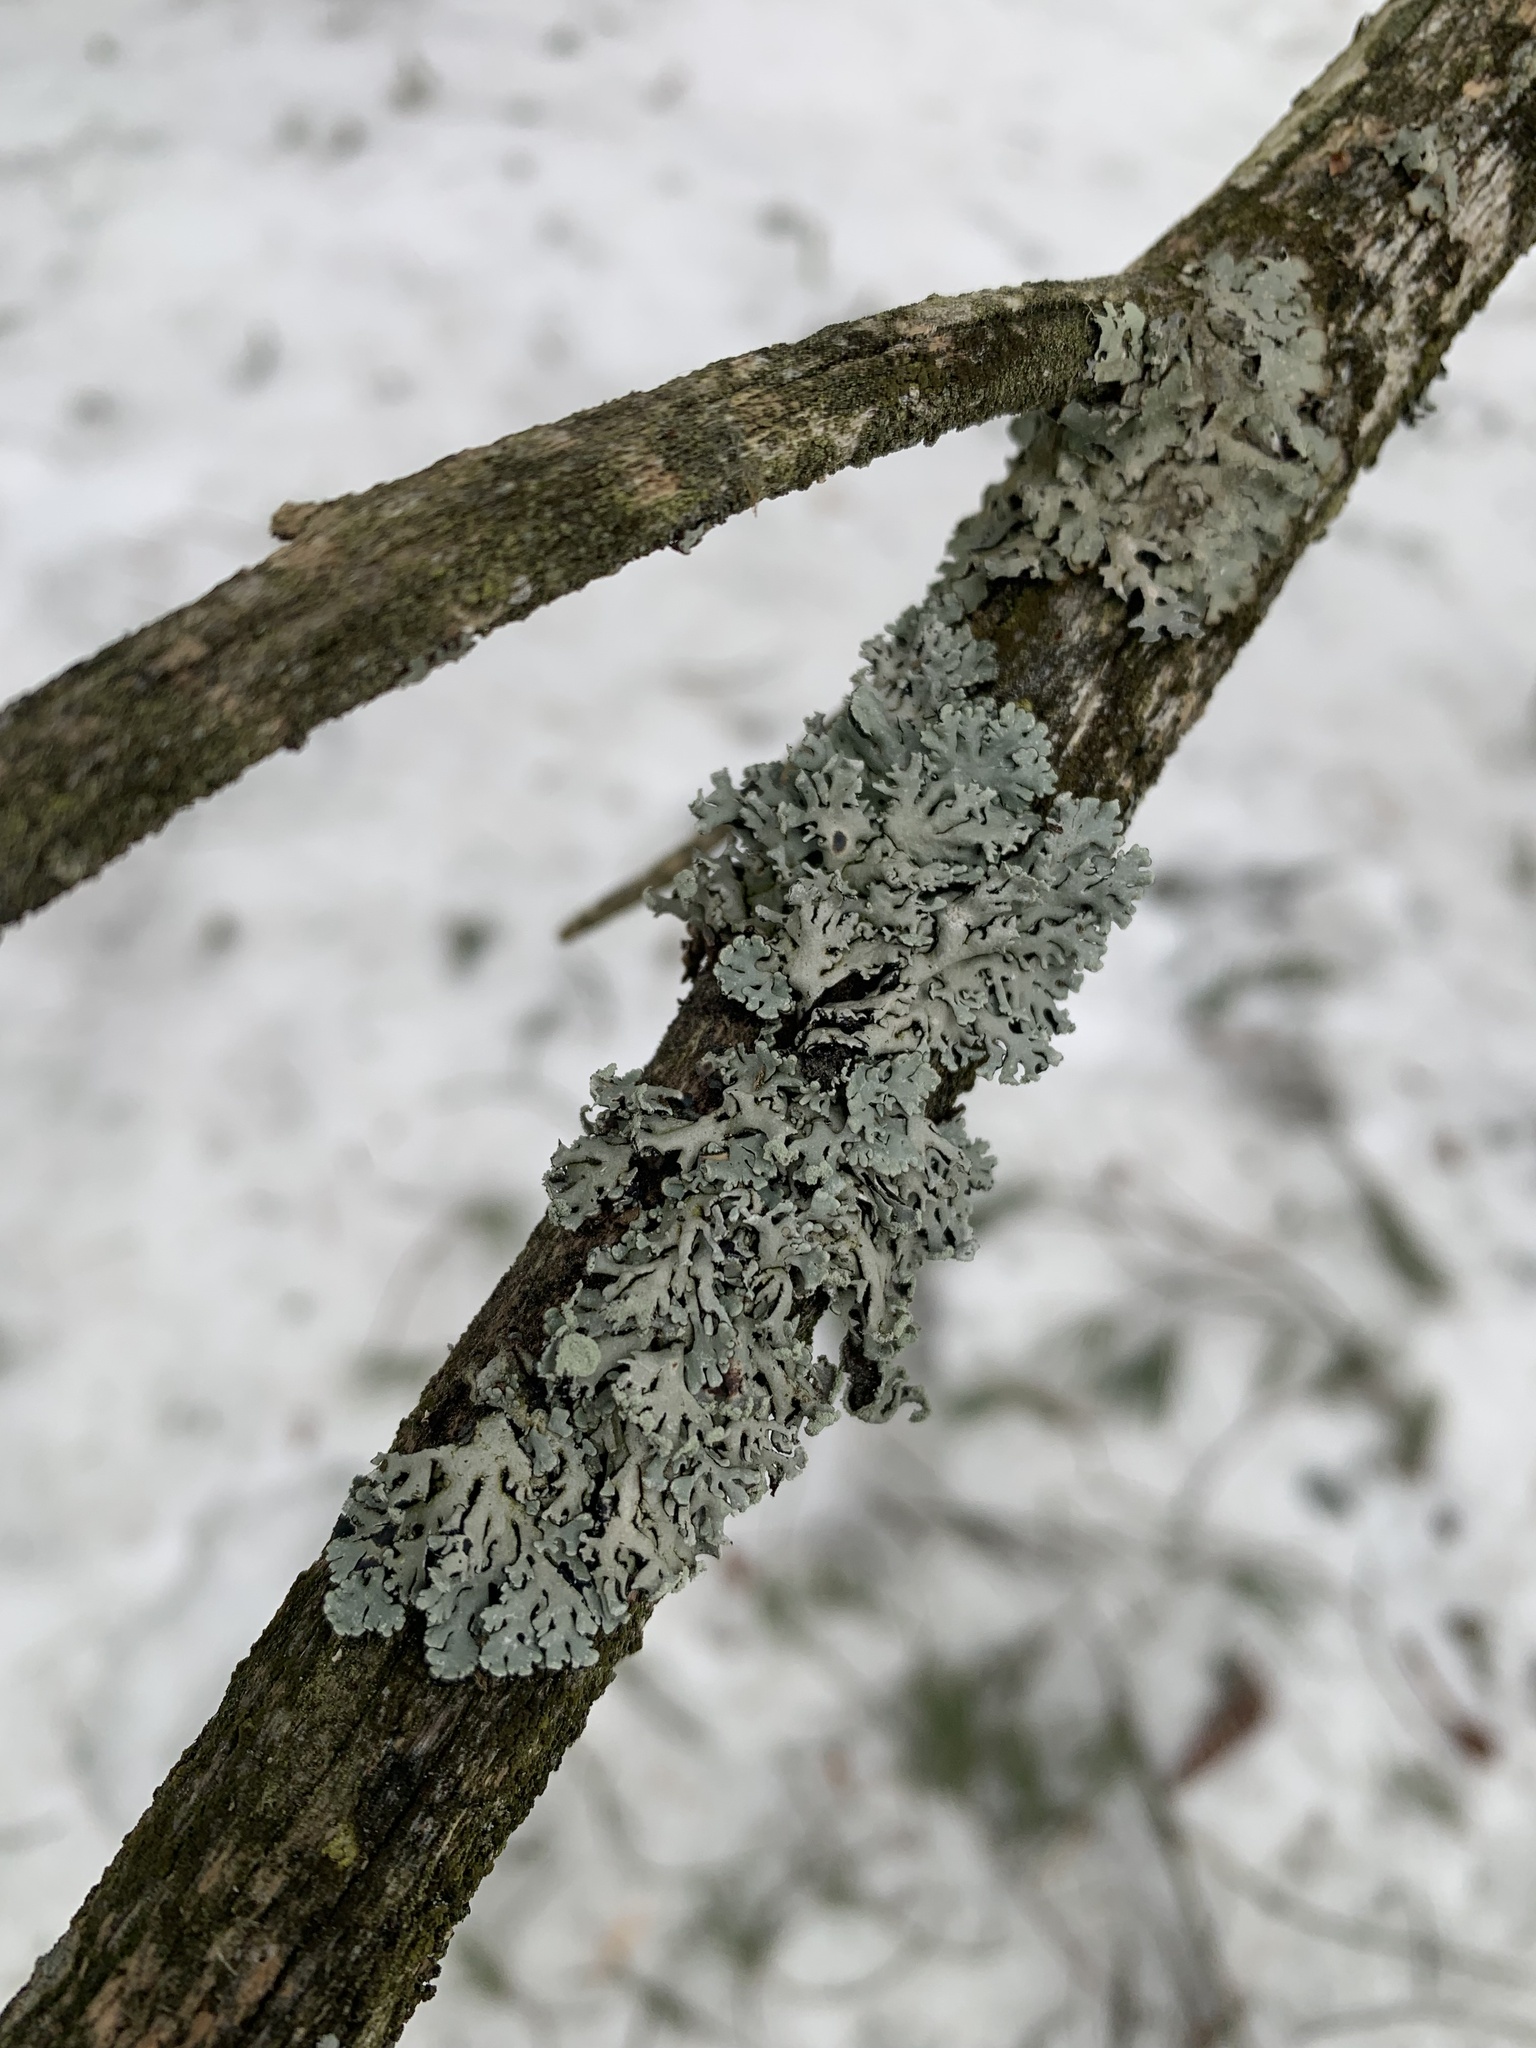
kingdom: Fungi
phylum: Ascomycota
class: Lecanoromycetes
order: Lecanorales
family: Parmeliaceae
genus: Hypogymnia
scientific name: Hypogymnia physodes
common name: Dark crottle
